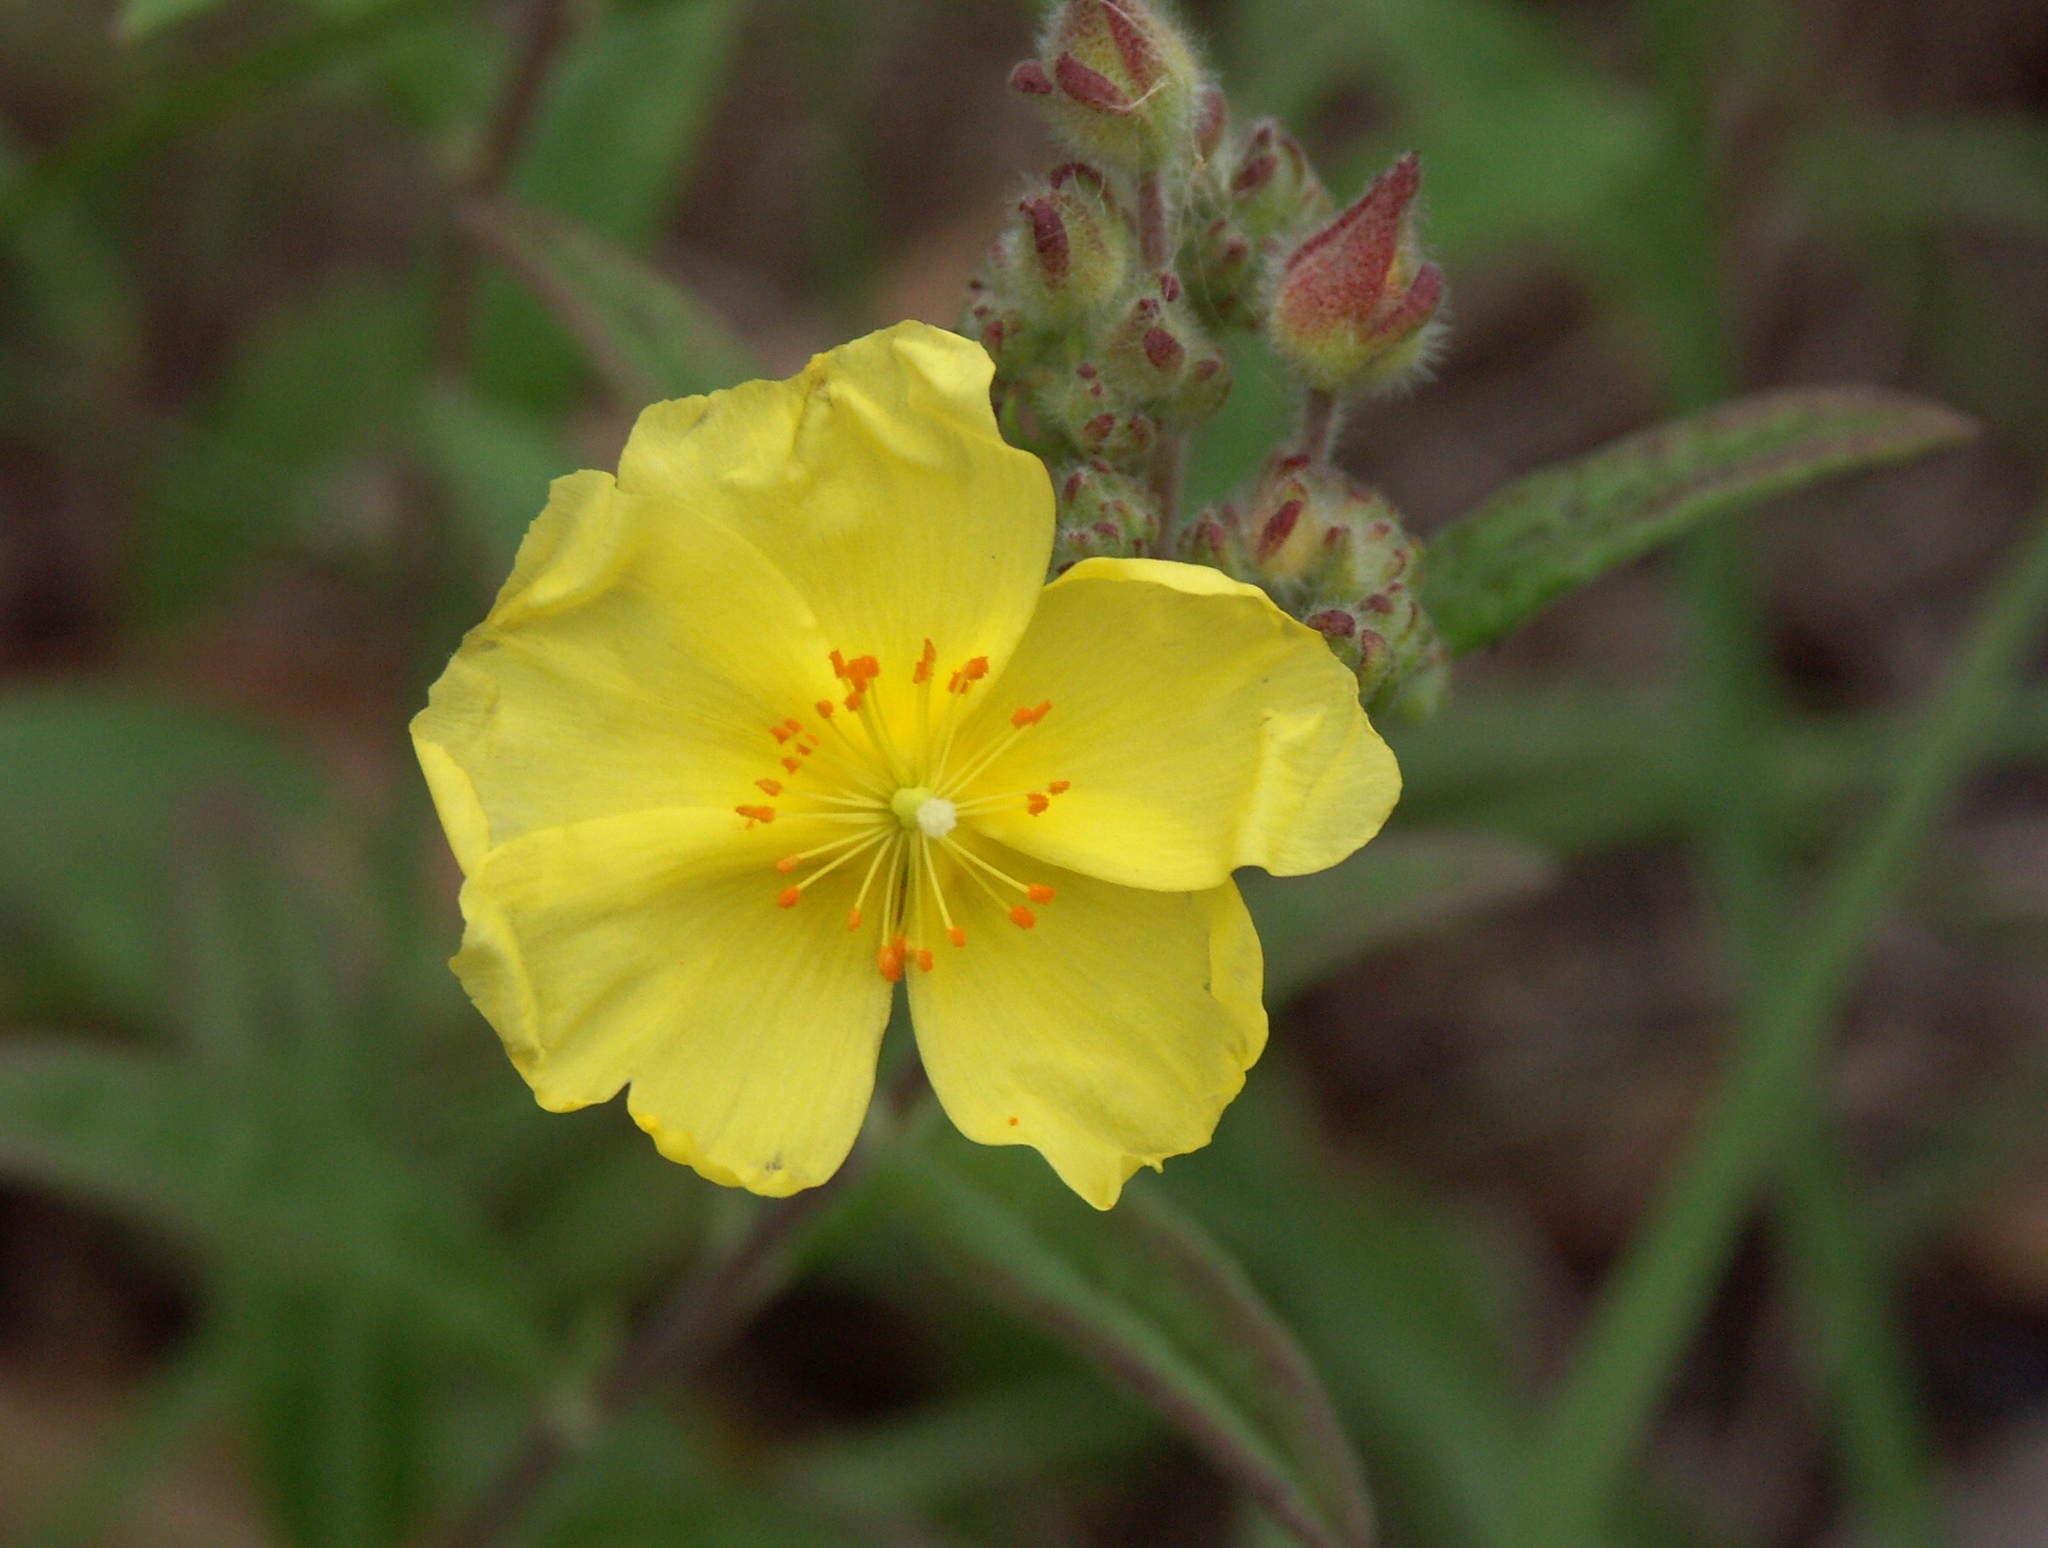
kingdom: Plantae
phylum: Tracheophyta
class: Magnoliopsida
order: Malvales
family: Cistaceae
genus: Crocanthemum
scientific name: Crocanthemum corymbosum
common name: Pinebarren sun-rose
